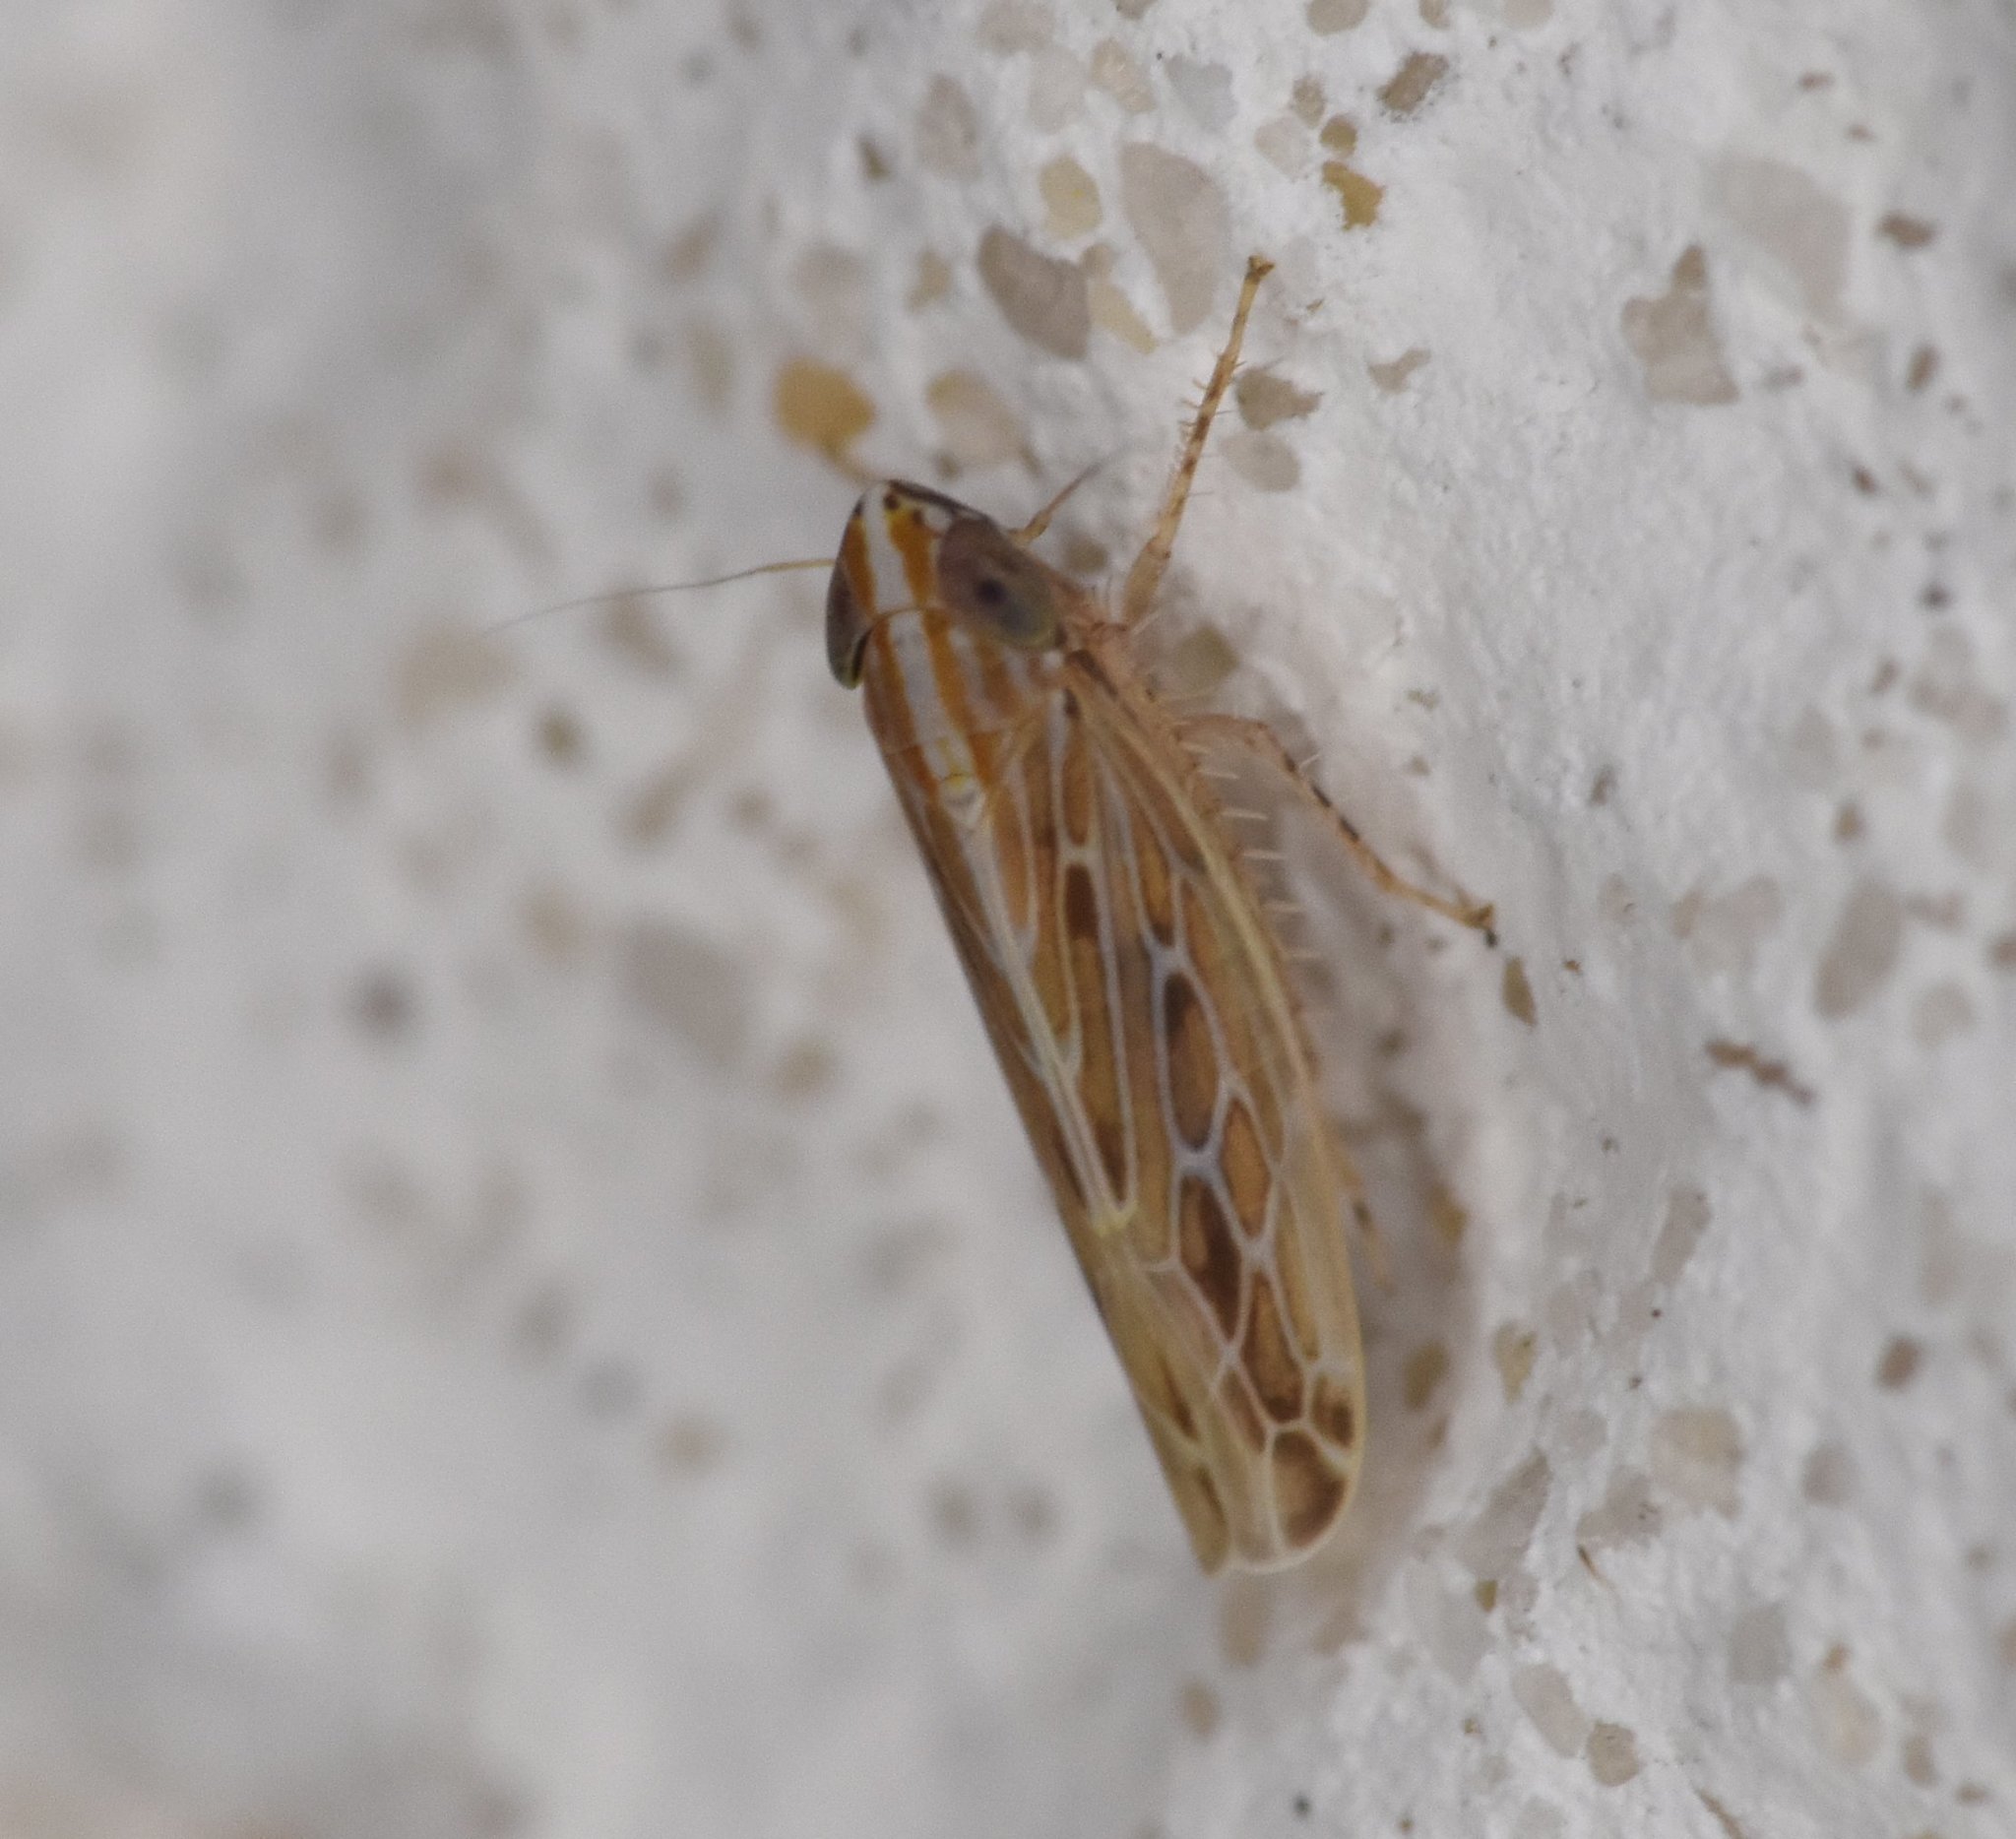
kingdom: Animalia
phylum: Arthropoda
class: Insecta
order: Hemiptera
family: Cicadellidae
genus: Cumora
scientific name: Cumora furcata
